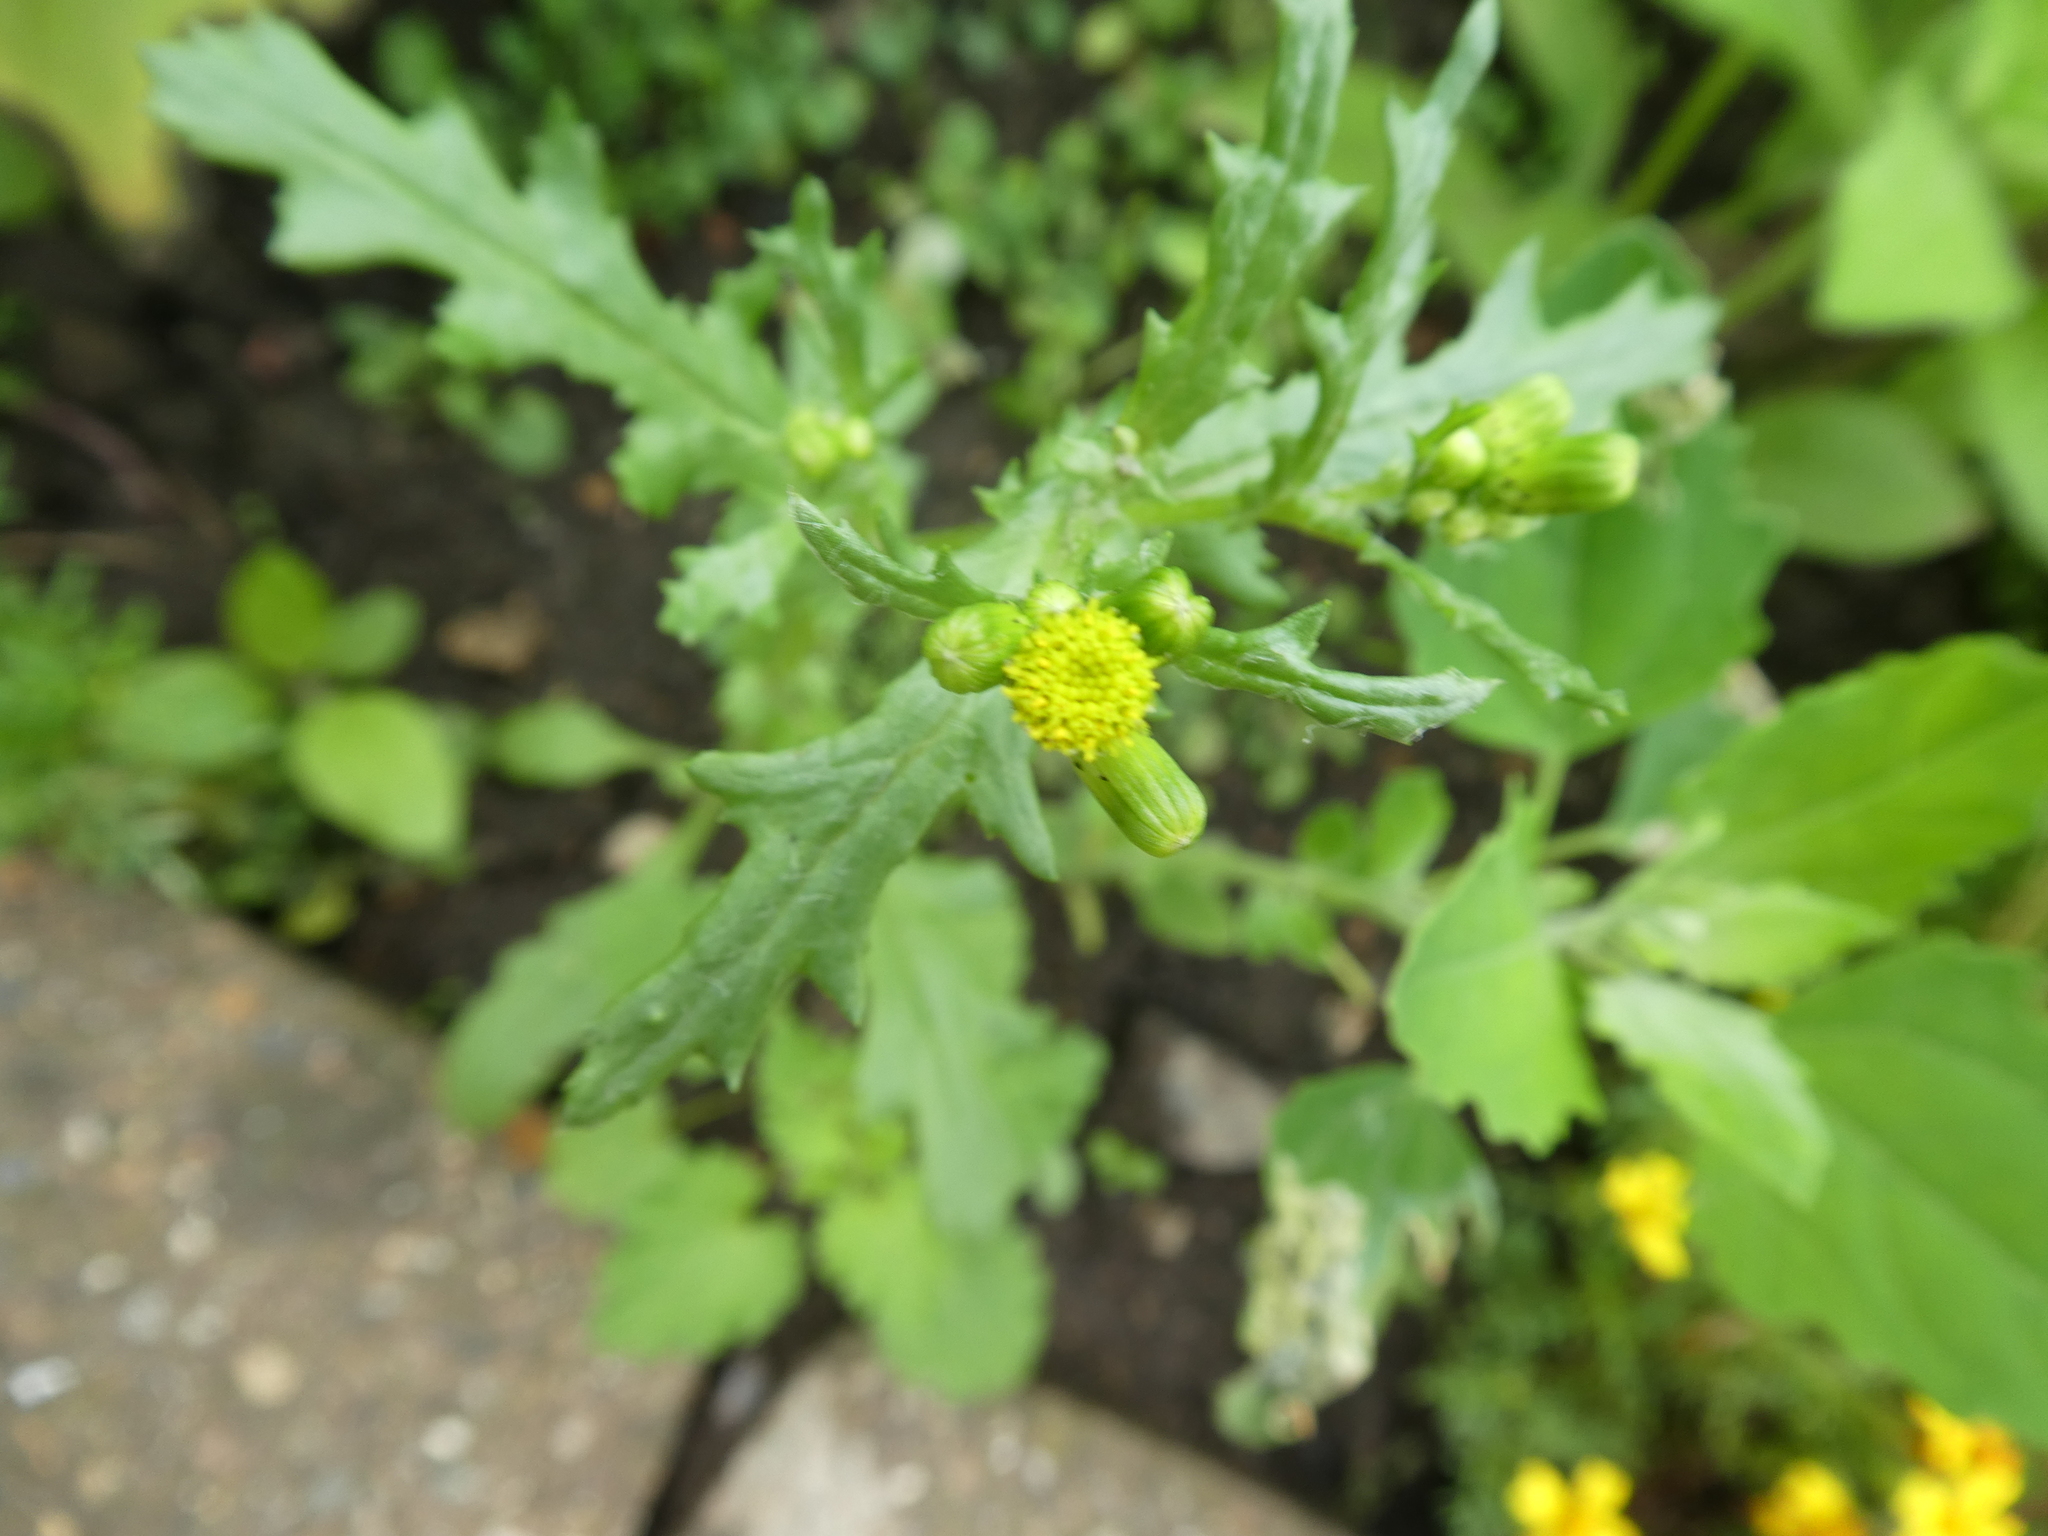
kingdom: Plantae
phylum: Tracheophyta
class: Magnoliopsida
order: Asterales
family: Asteraceae
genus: Senecio
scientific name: Senecio vulgaris
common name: Old-man-in-the-spring
